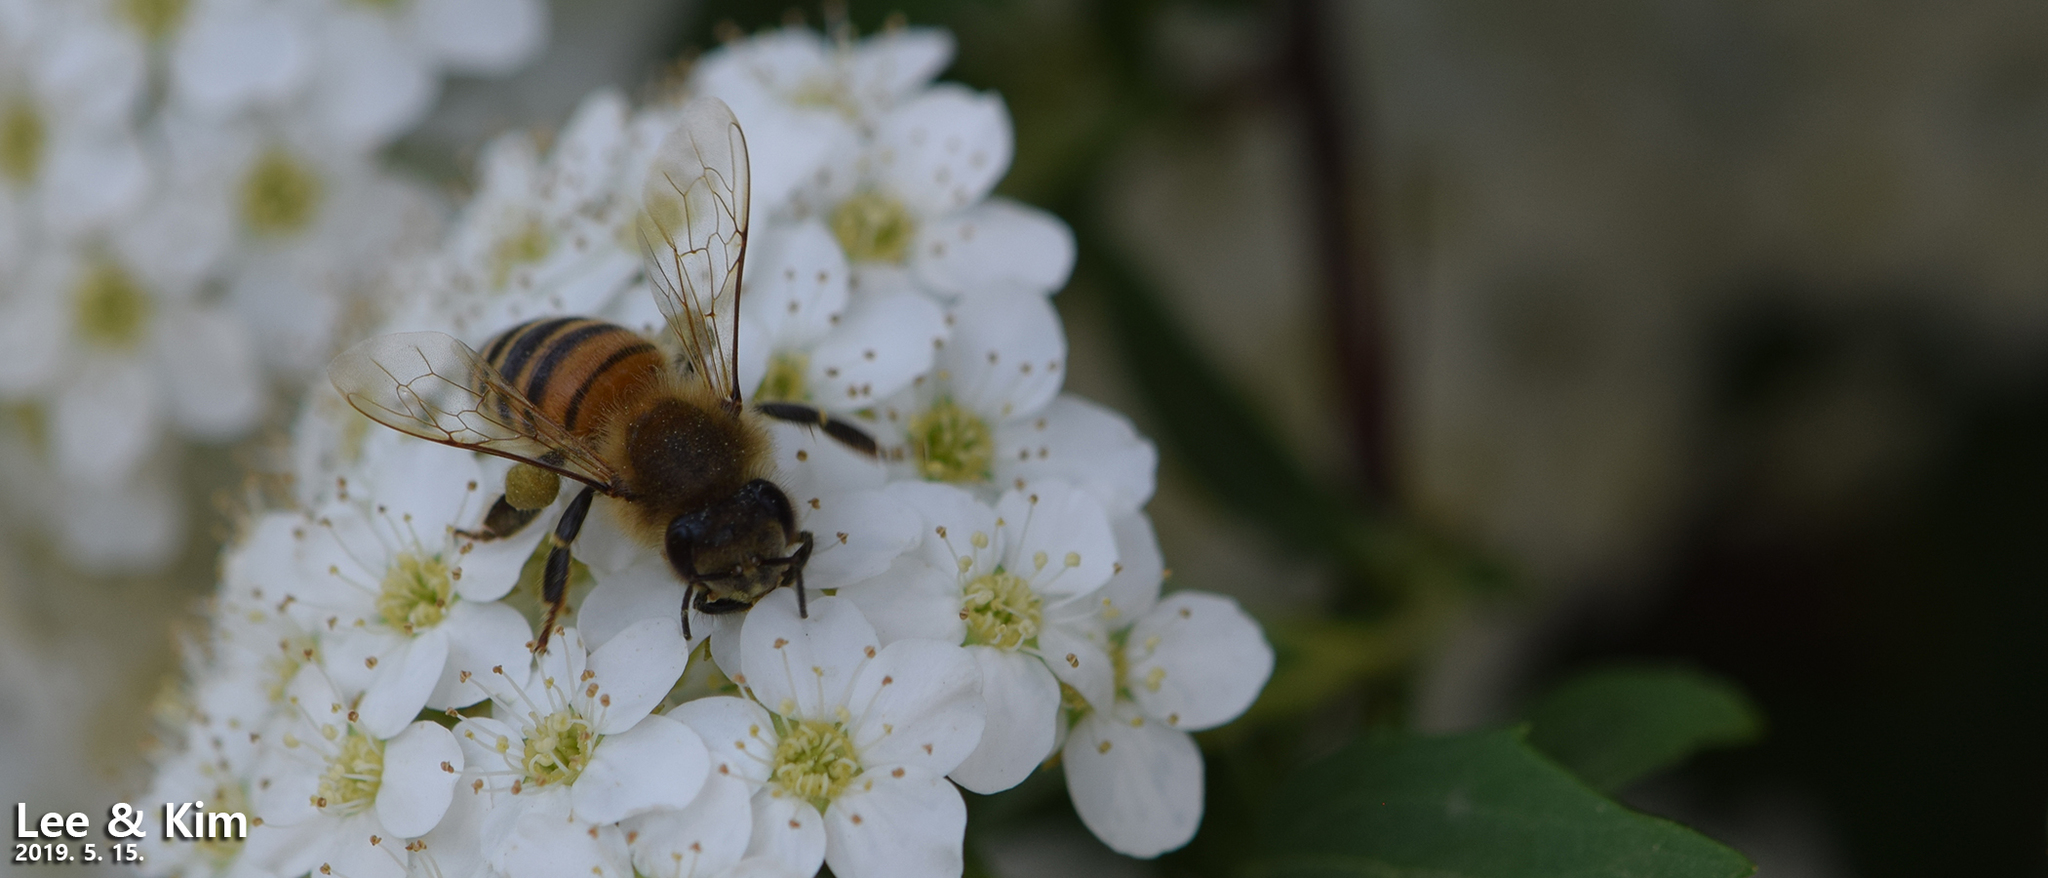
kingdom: Animalia
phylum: Arthropoda
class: Insecta
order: Hymenoptera
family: Apidae
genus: Apis
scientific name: Apis mellifera
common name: Honey bee
